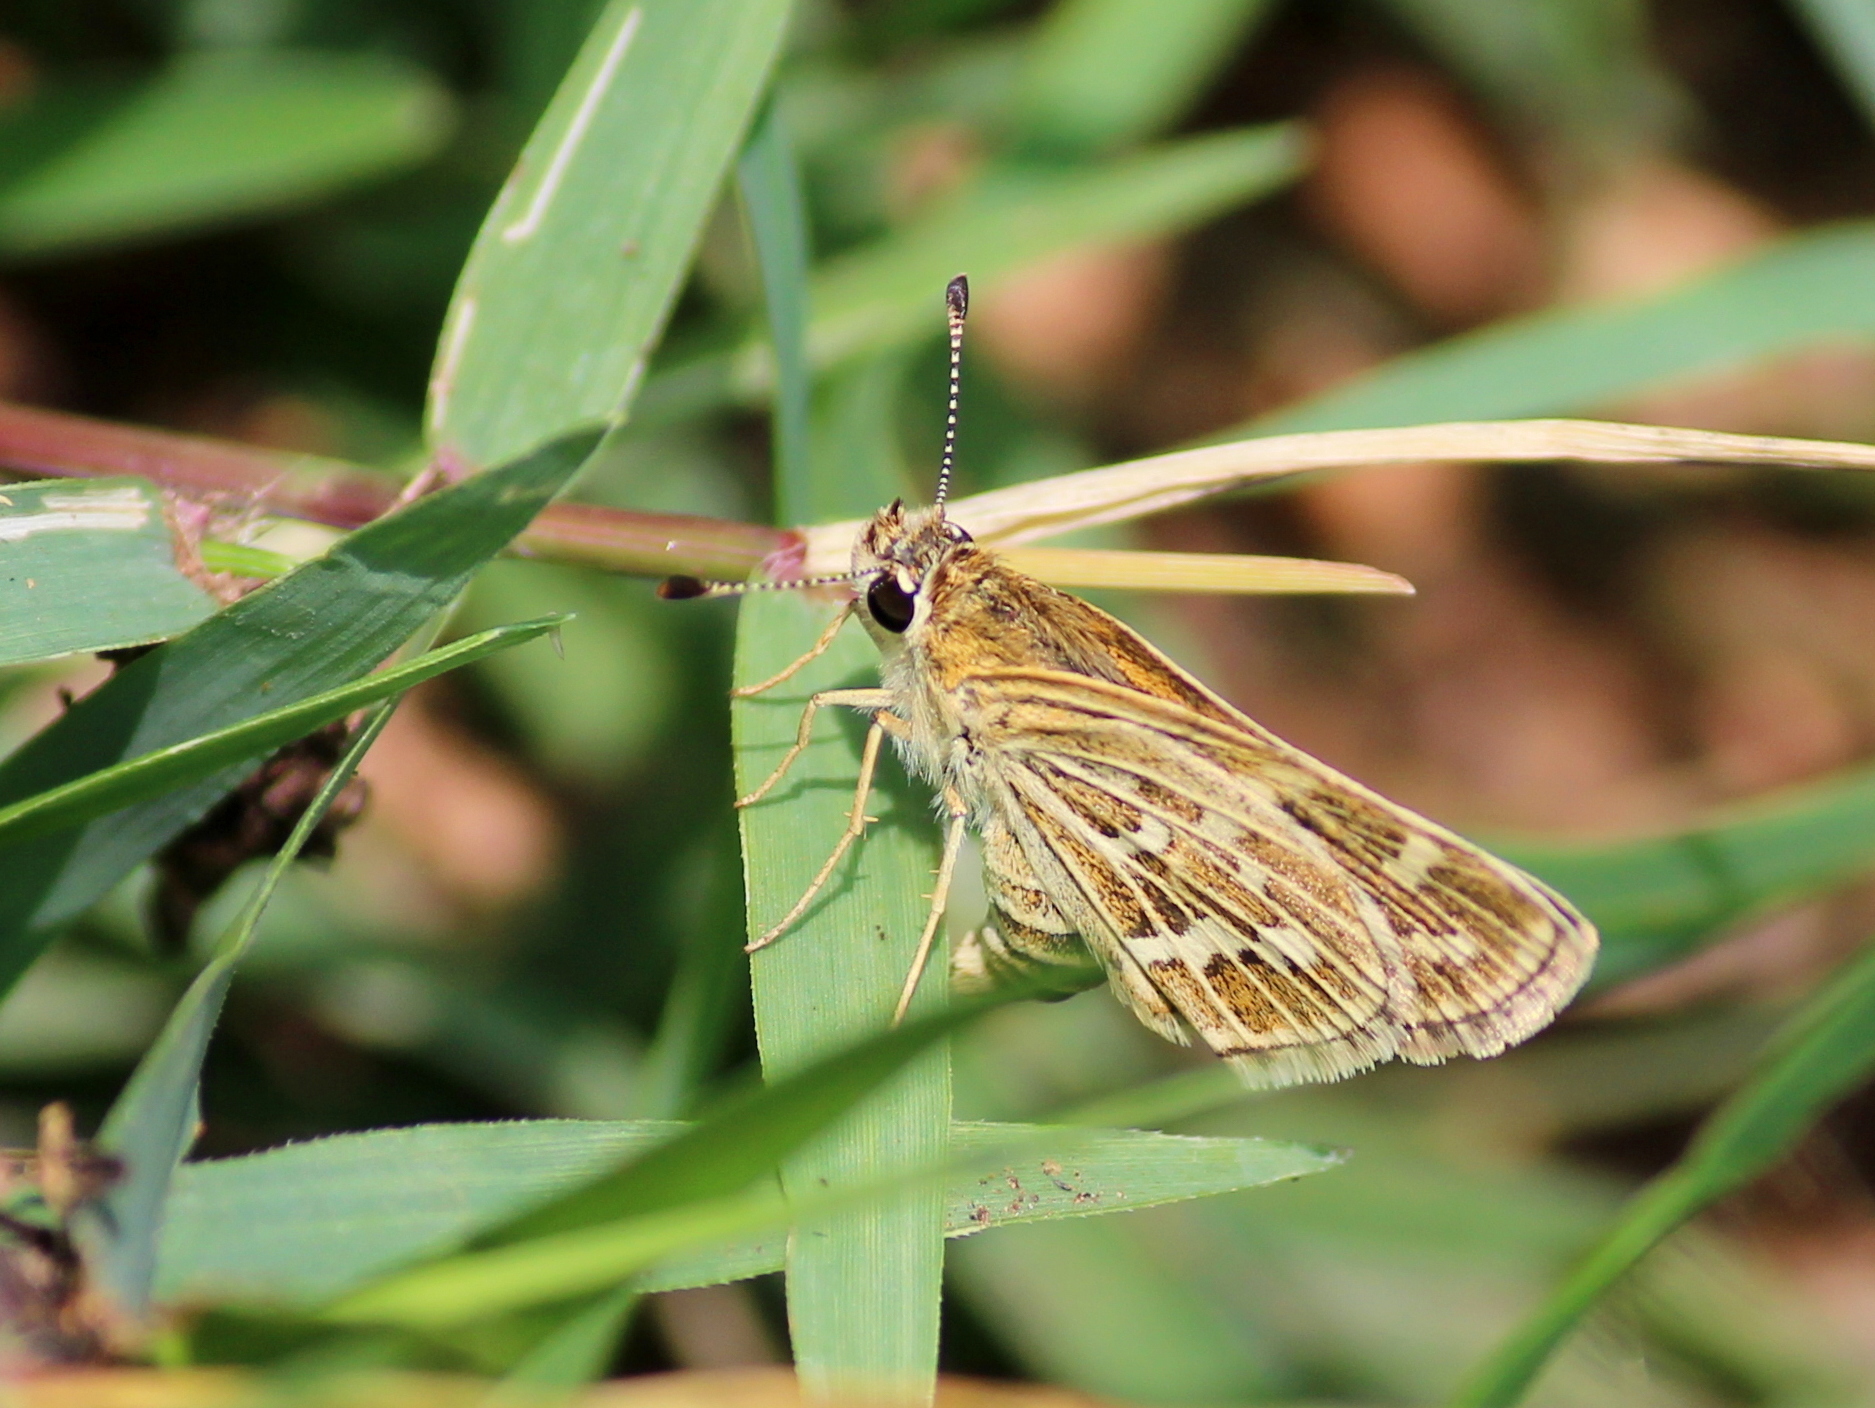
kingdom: Animalia
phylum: Arthropoda
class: Insecta
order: Lepidoptera
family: Hesperiidae
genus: Taractrocera
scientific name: Taractrocera maevius
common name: Common grass-dart
